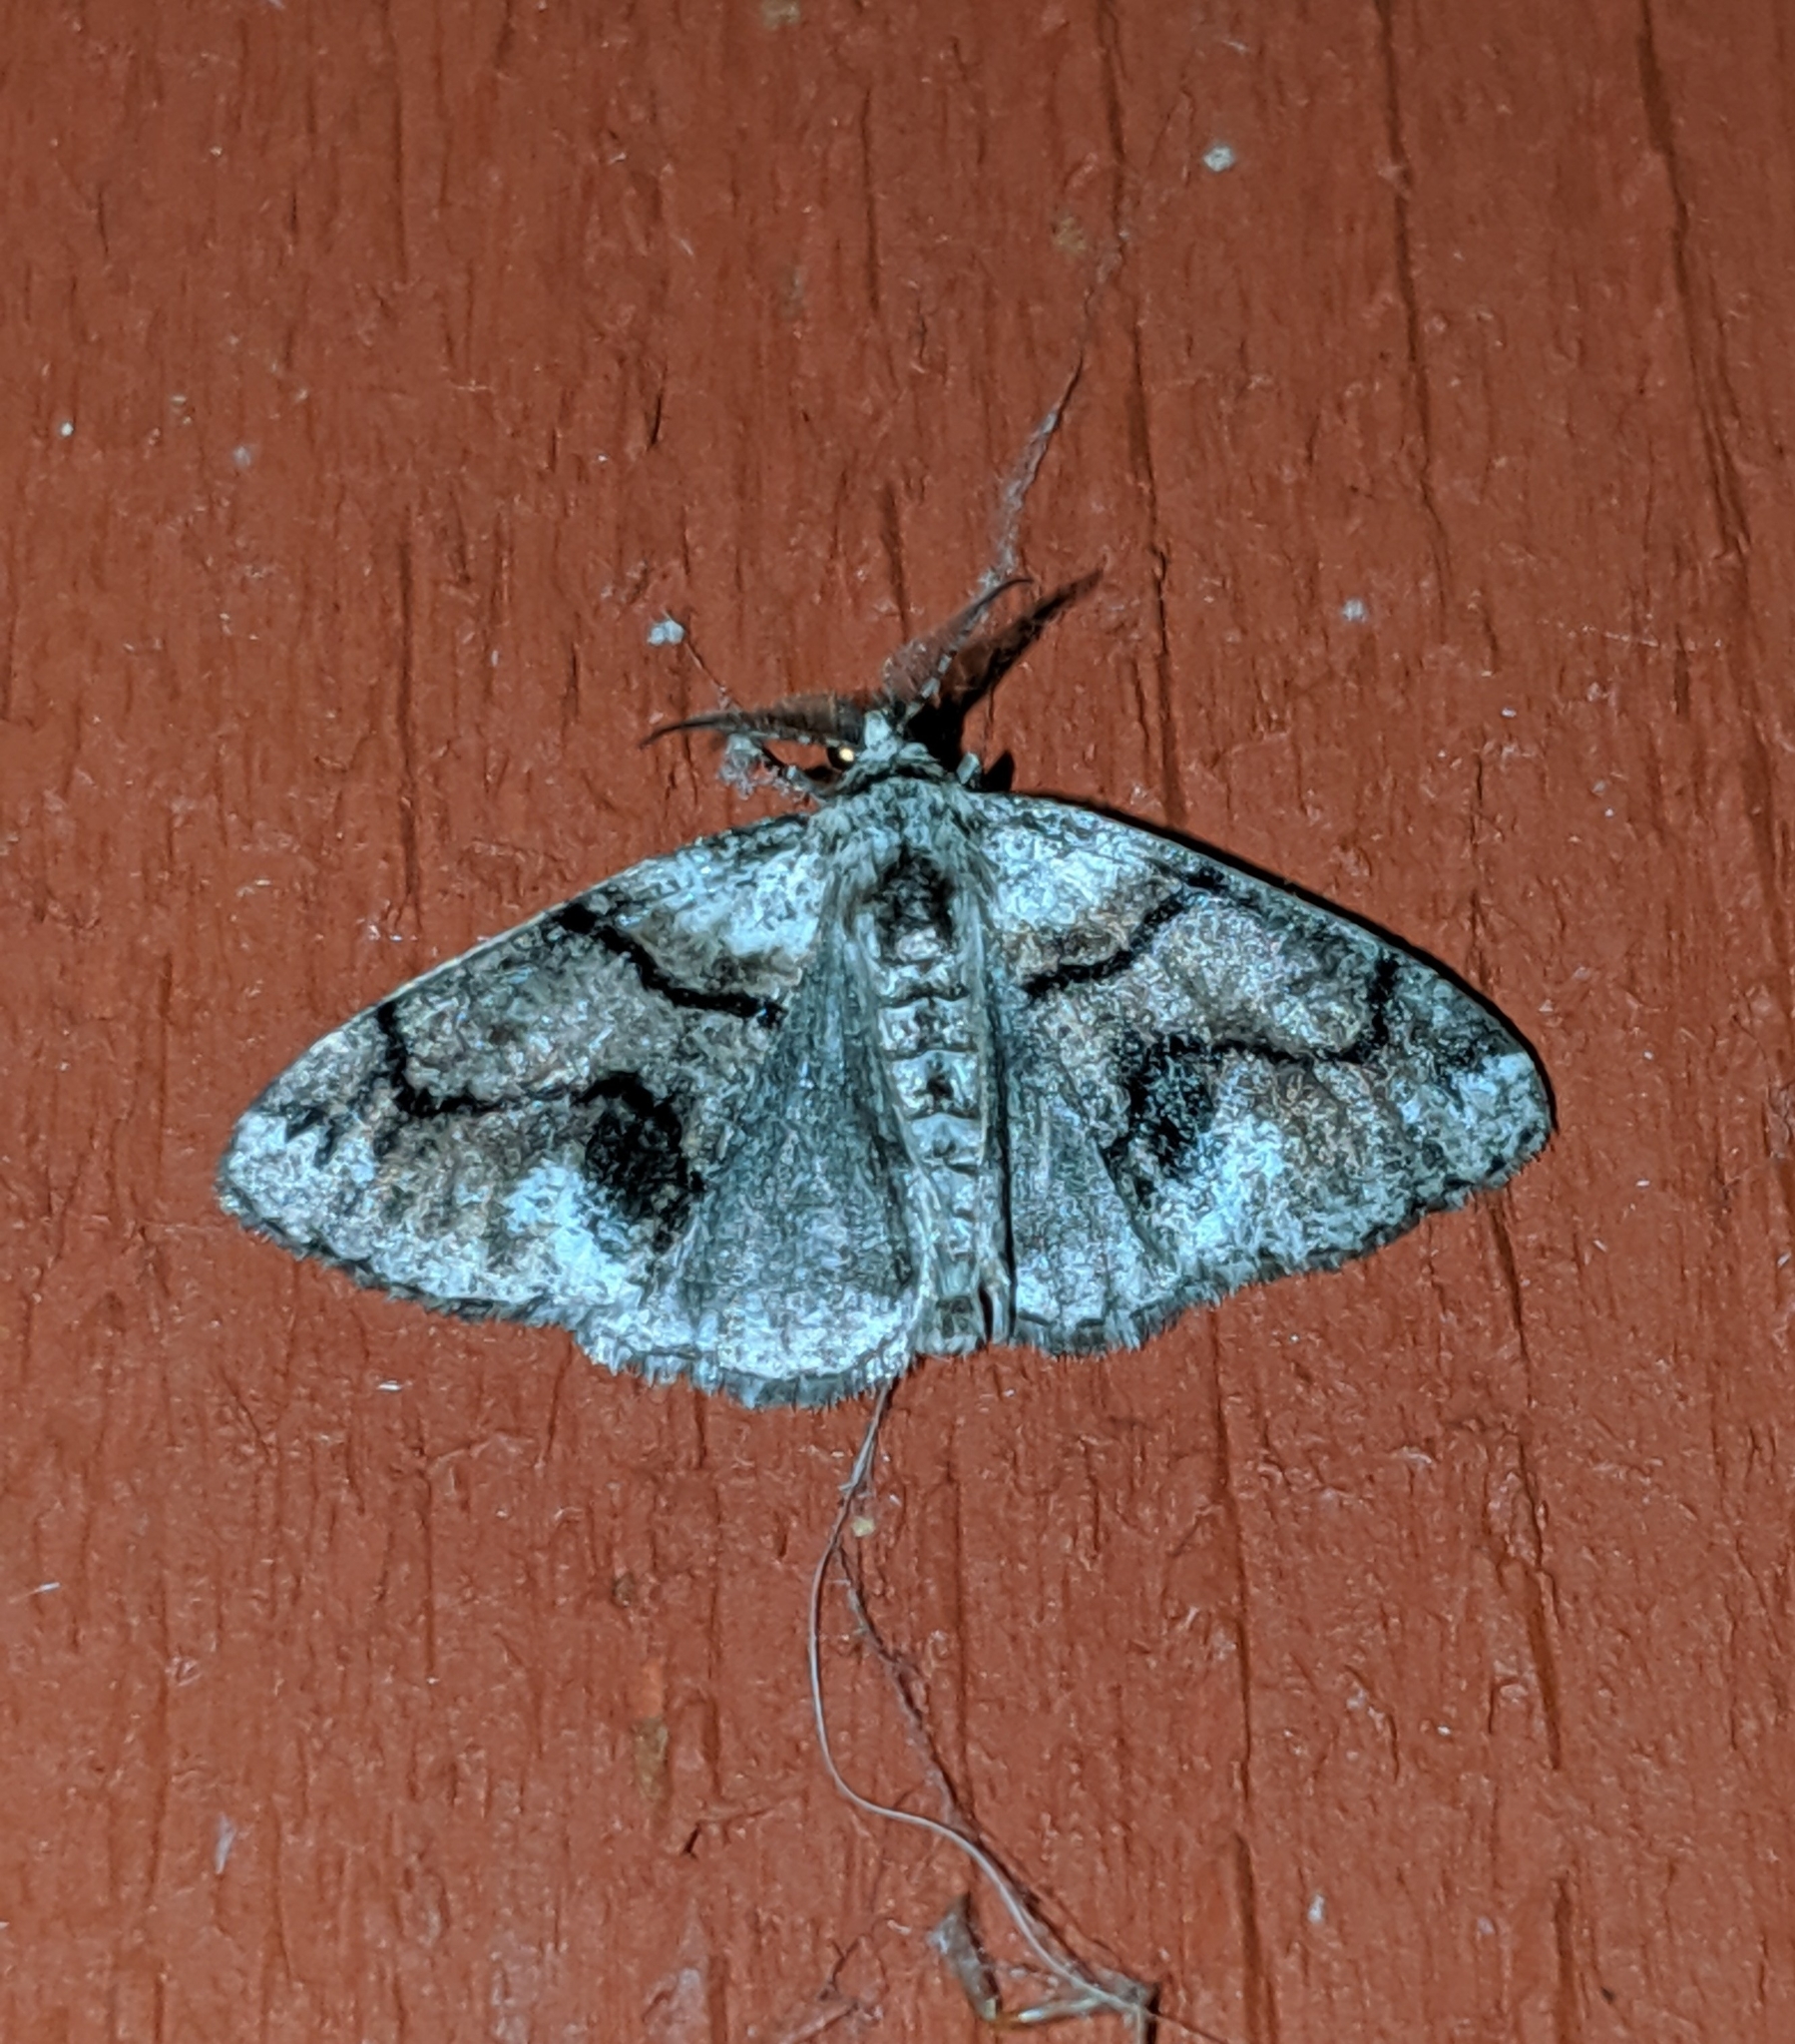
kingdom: Animalia
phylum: Arthropoda
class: Insecta
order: Lepidoptera
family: Geometridae
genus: Gabriola
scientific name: Gabriola dyari
